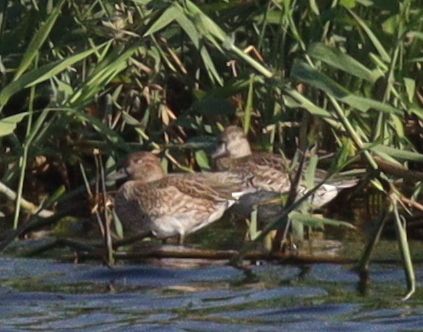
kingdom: Animalia
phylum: Chordata
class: Aves
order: Anseriformes
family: Anatidae
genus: Anas
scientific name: Anas crecca
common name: Eurasian teal
